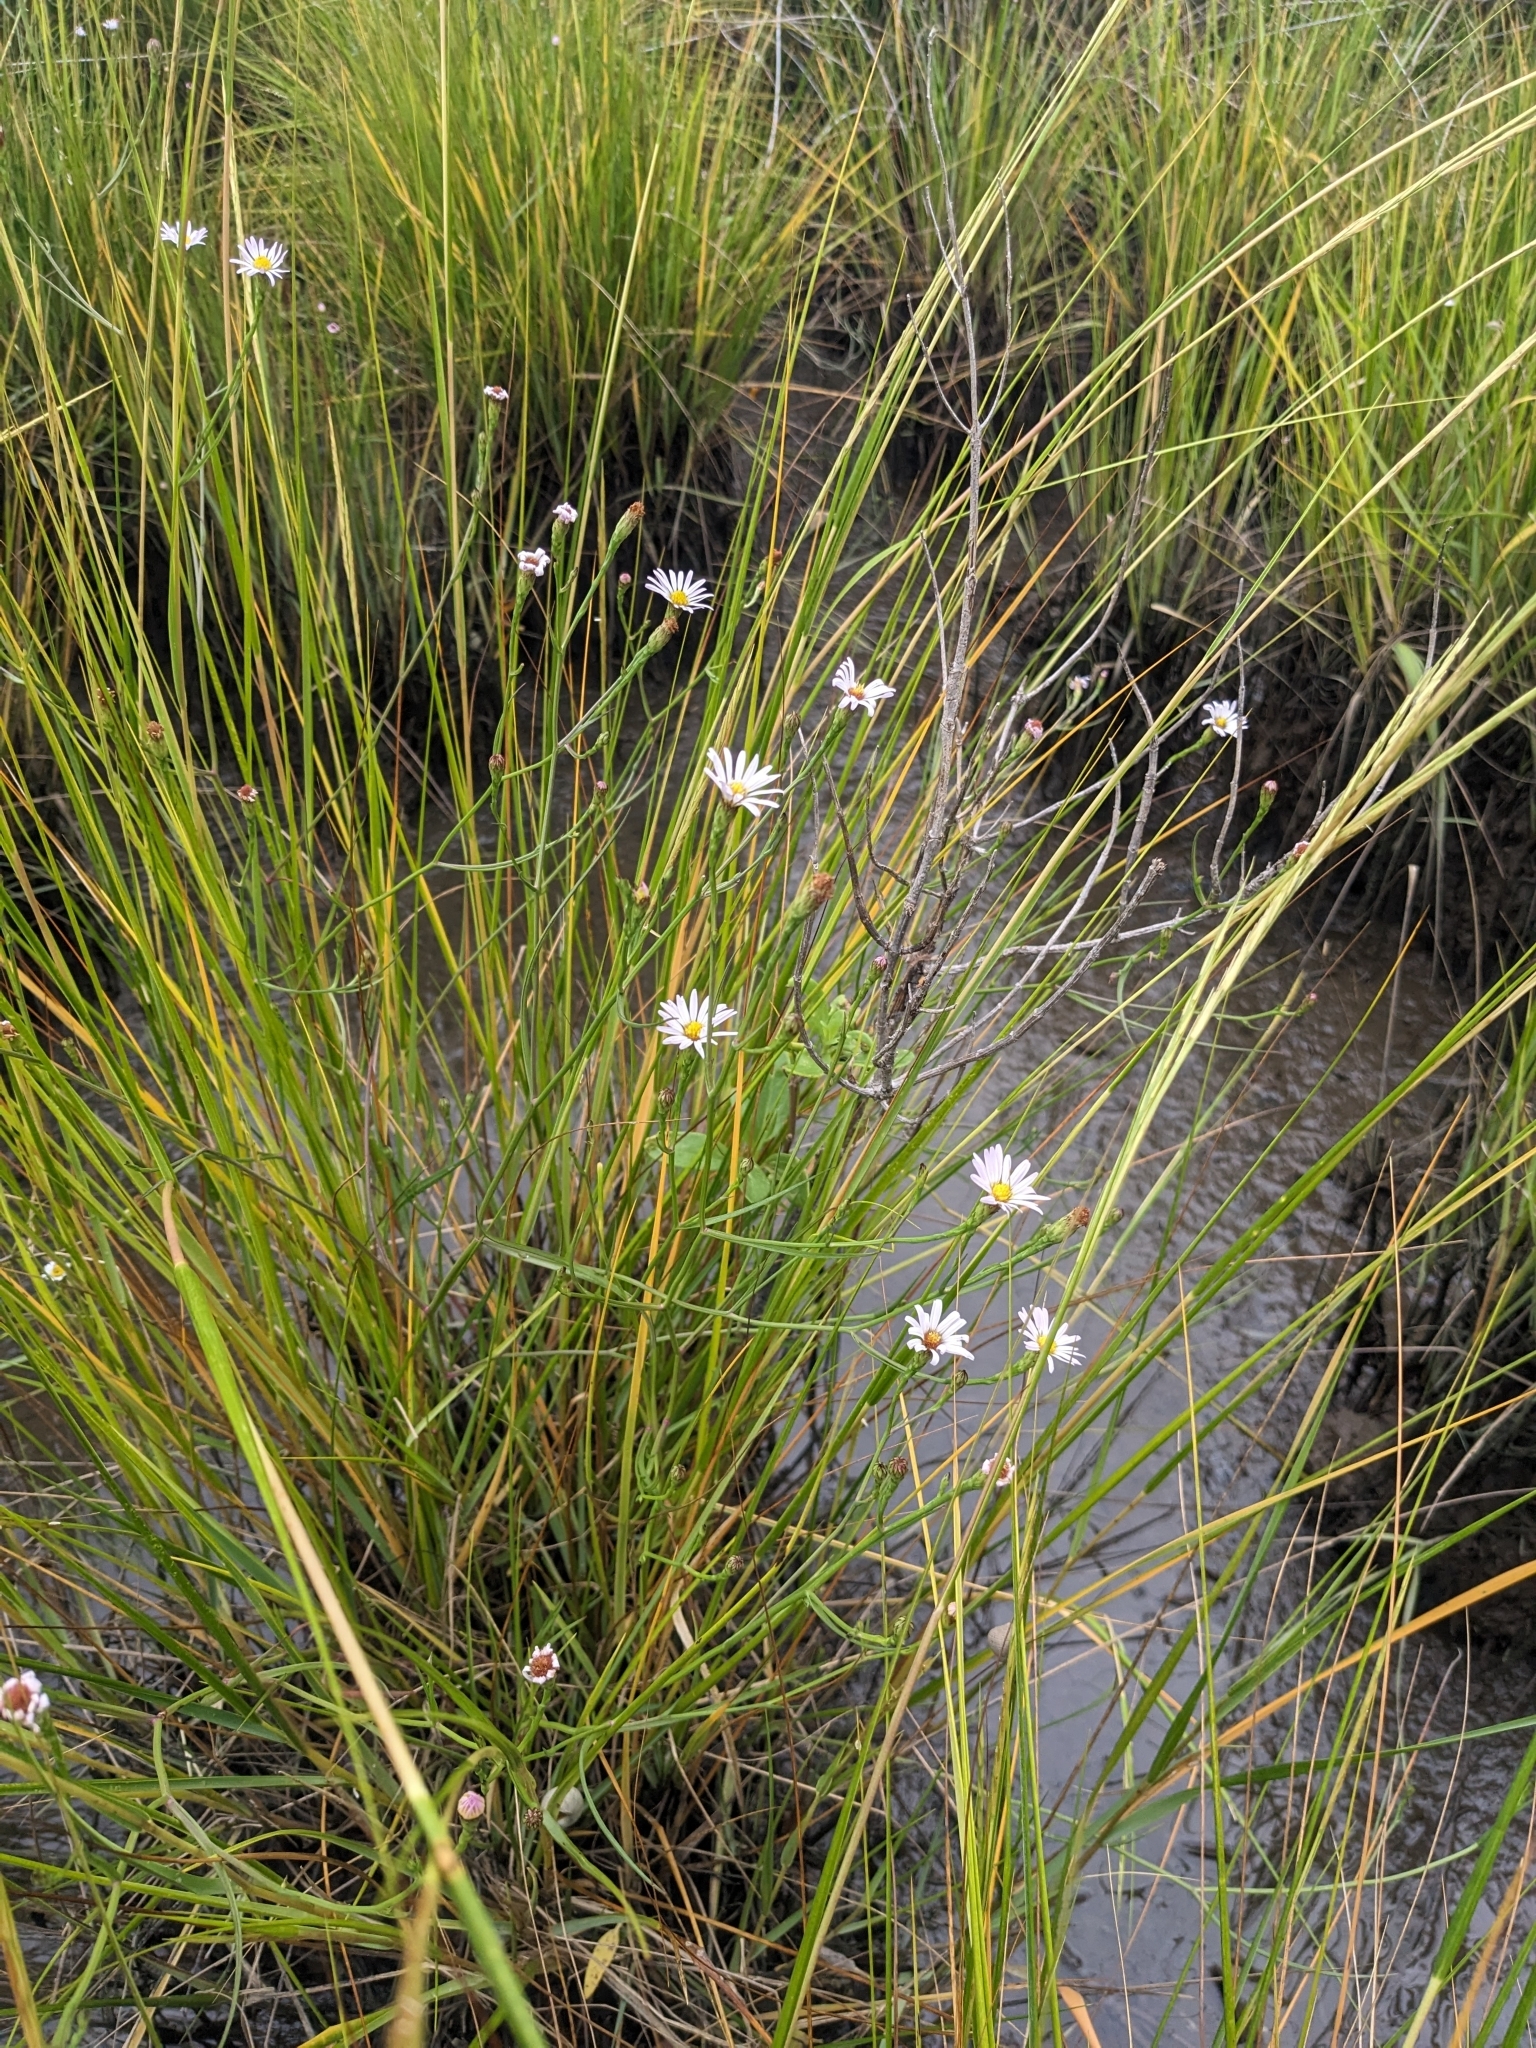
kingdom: Plantae
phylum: Tracheophyta
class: Magnoliopsida
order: Asterales
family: Asteraceae
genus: Symphyotrichum
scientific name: Symphyotrichum tenuifolium
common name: Perennial salt-marsh aster
